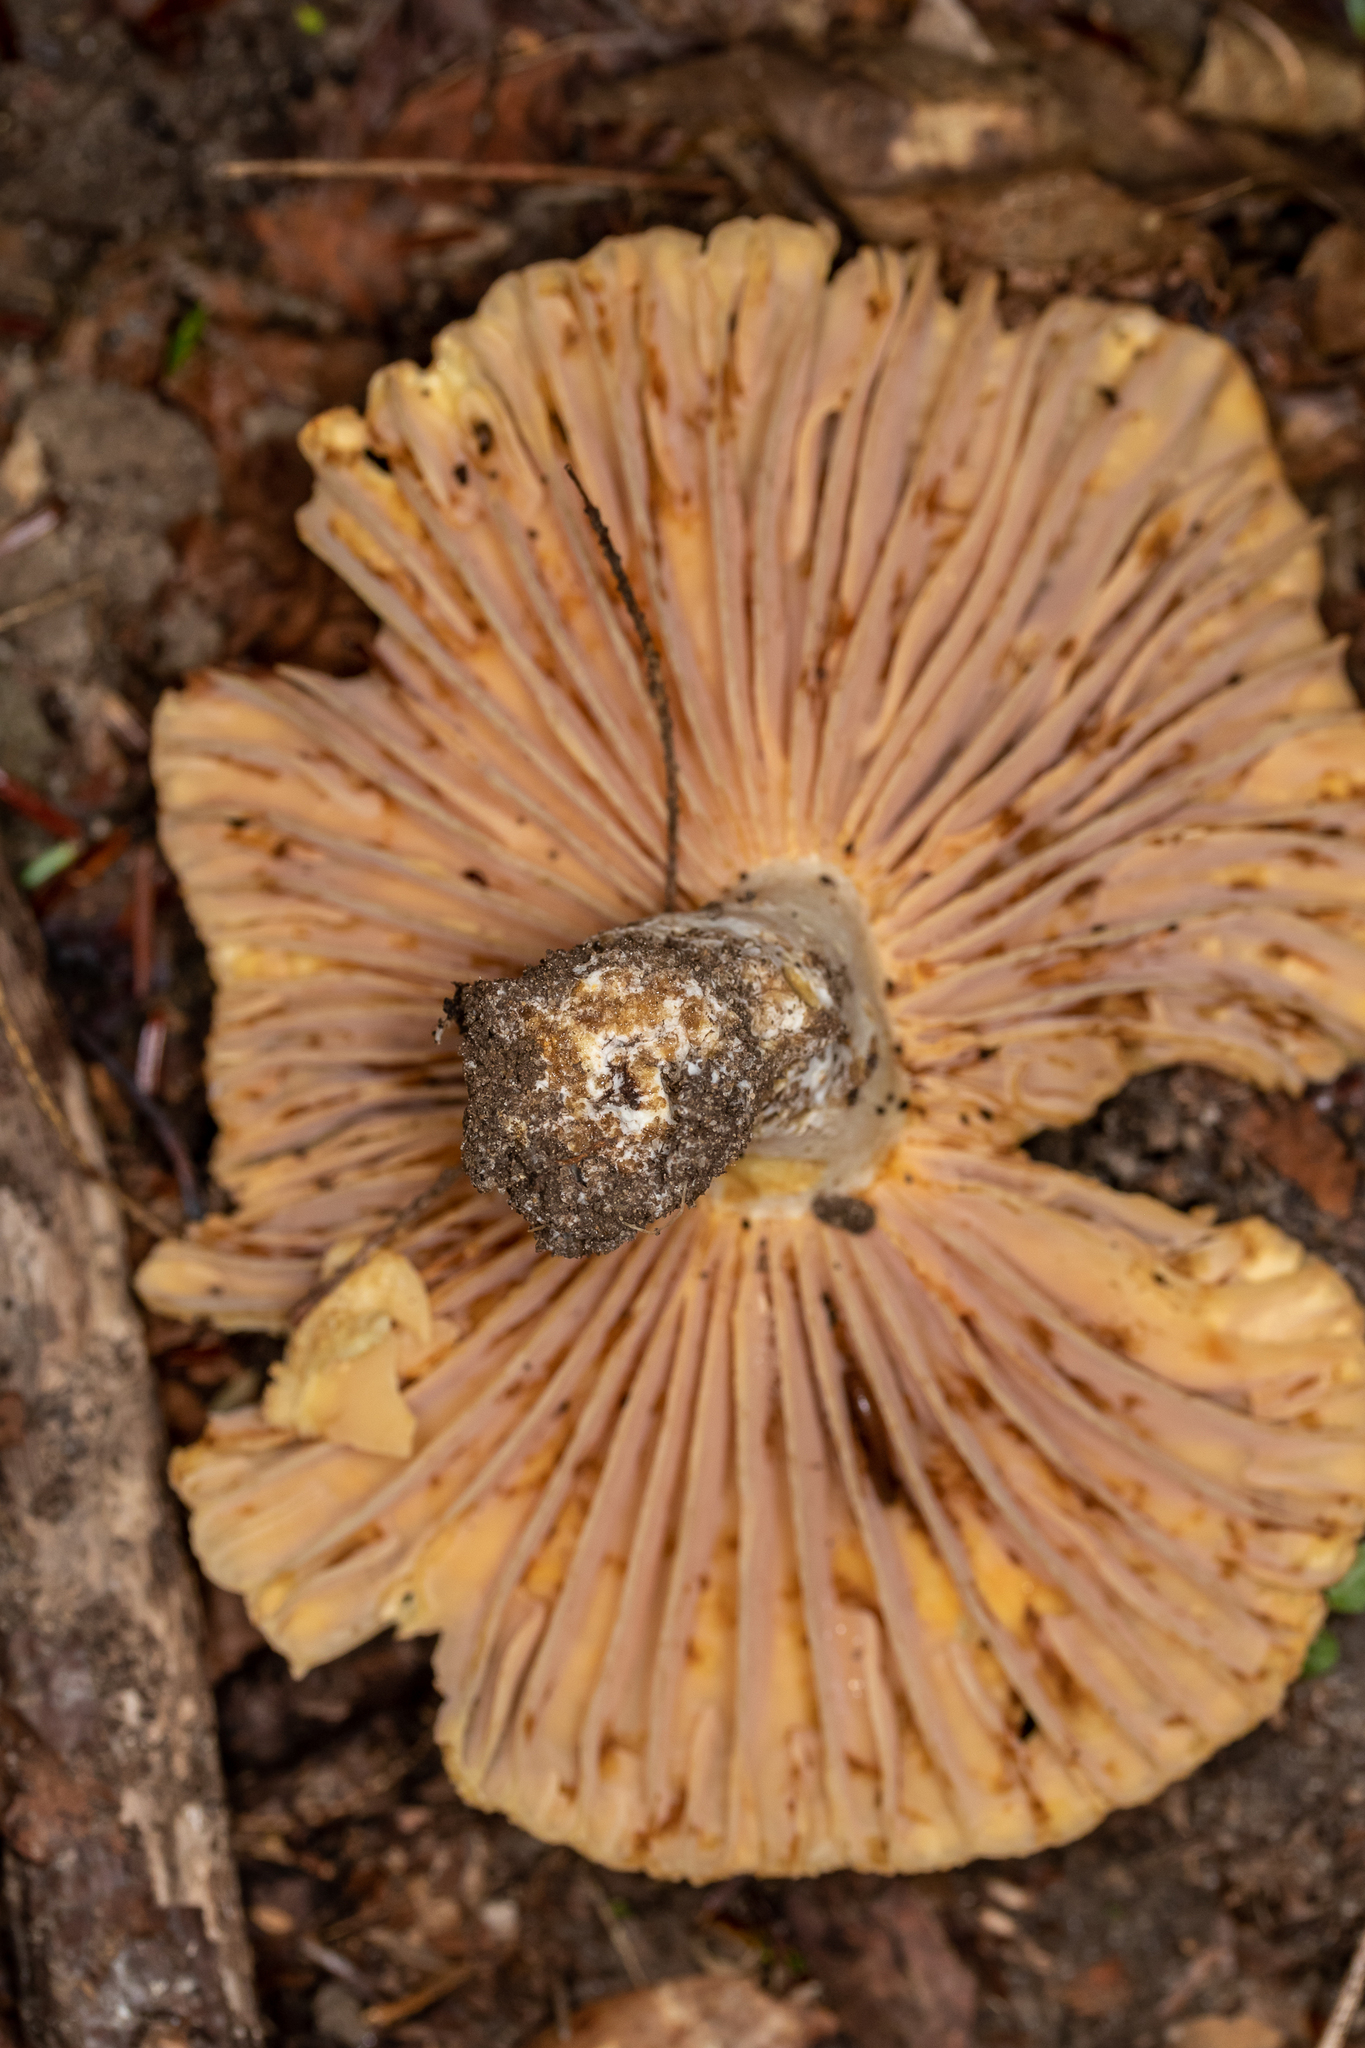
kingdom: Fungi
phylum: Basidiomycota
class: Agaricomycetes
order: Russulales
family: Russulaceae
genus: Russula
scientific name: Russula earlei
